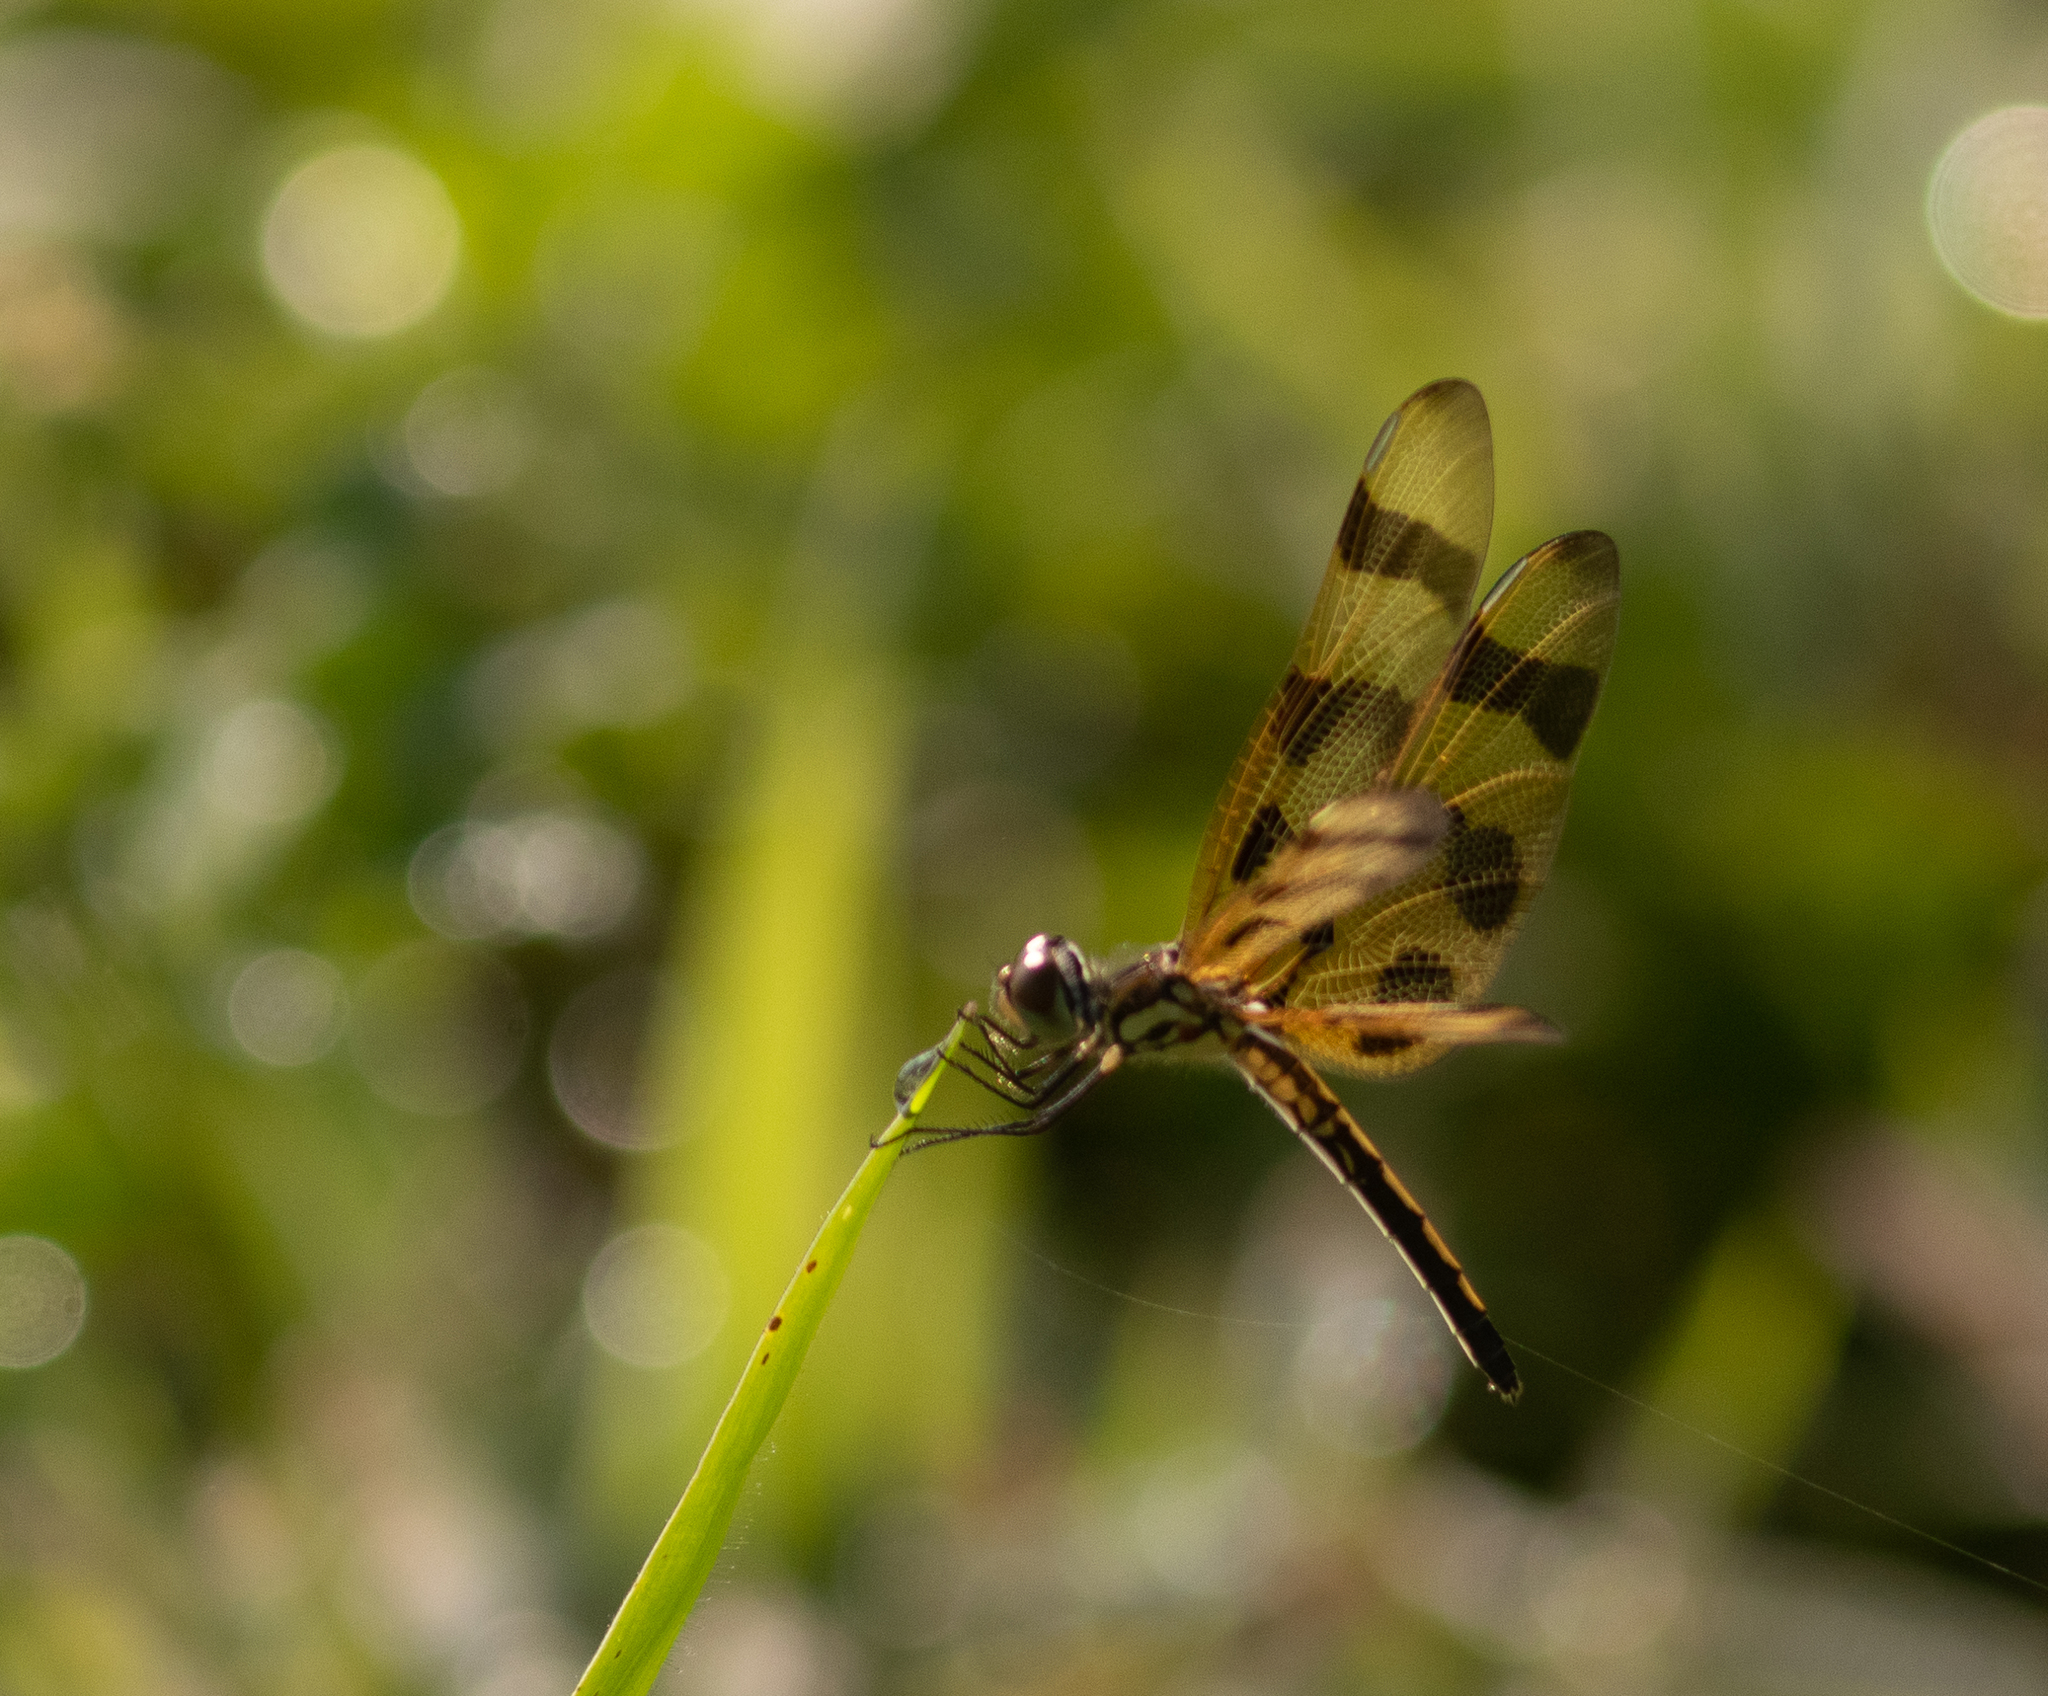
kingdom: Animalia
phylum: Arthropoda
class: Insecta
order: Odonata
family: Libellulidae
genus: Celithemis
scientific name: Celithemis eponina
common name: Halloween pennant
